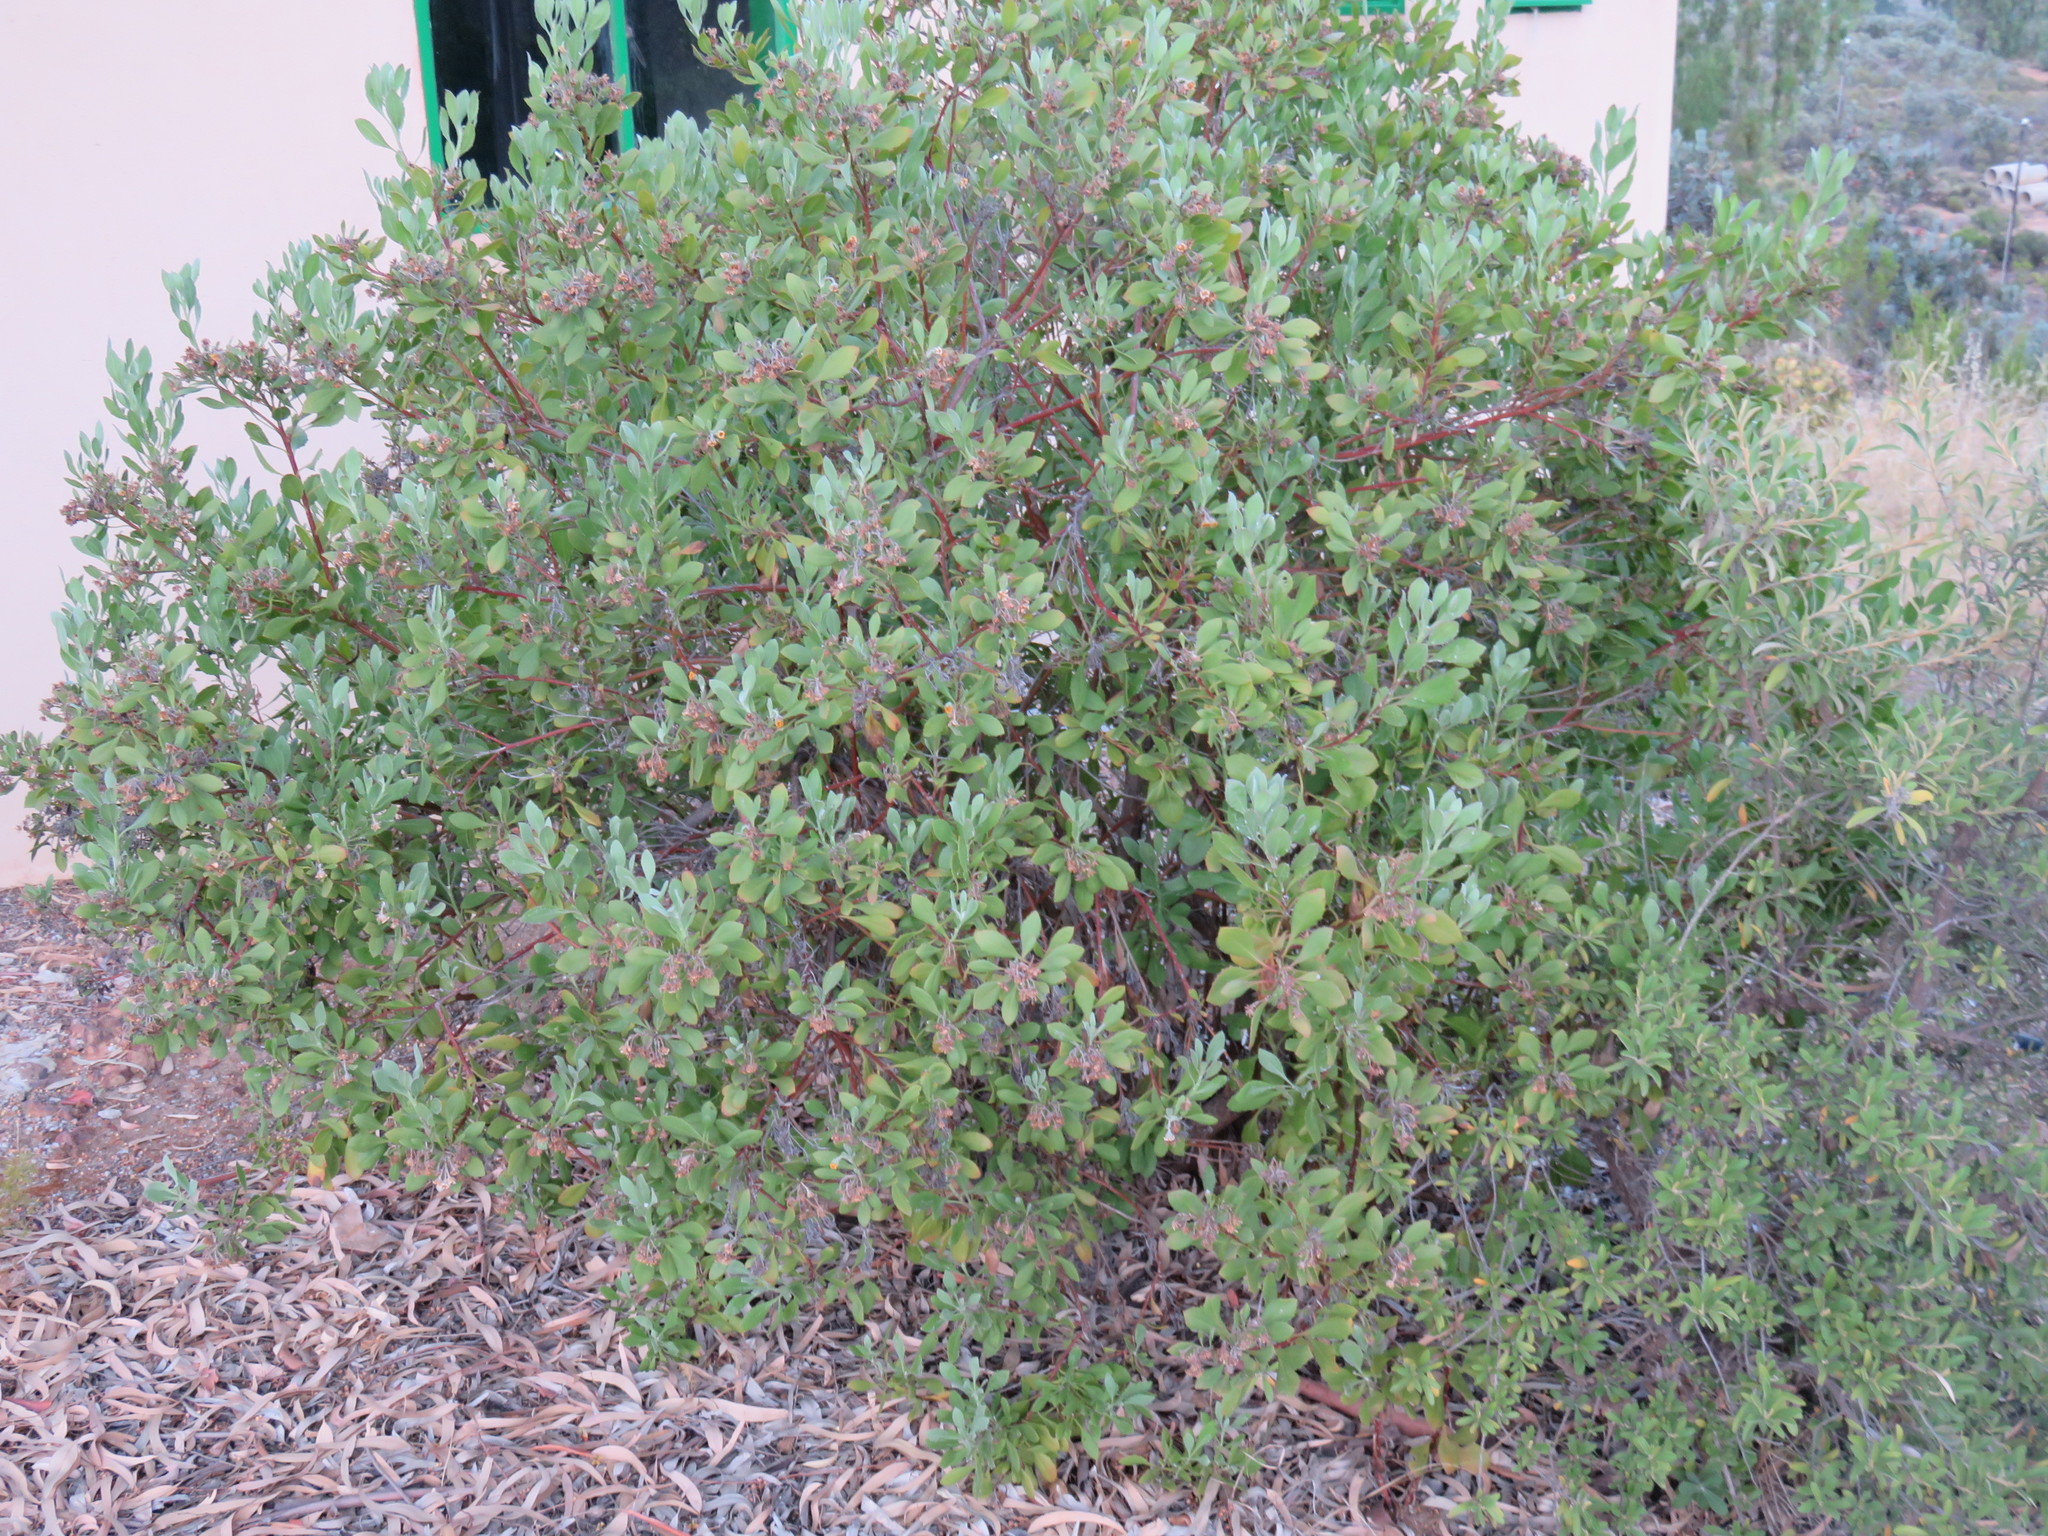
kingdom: Plantae
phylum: Tracheophyta
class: Magnoliopsida
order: Asterales
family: Asteraceae
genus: Osteospermum
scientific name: Osteospermum moniliferum
